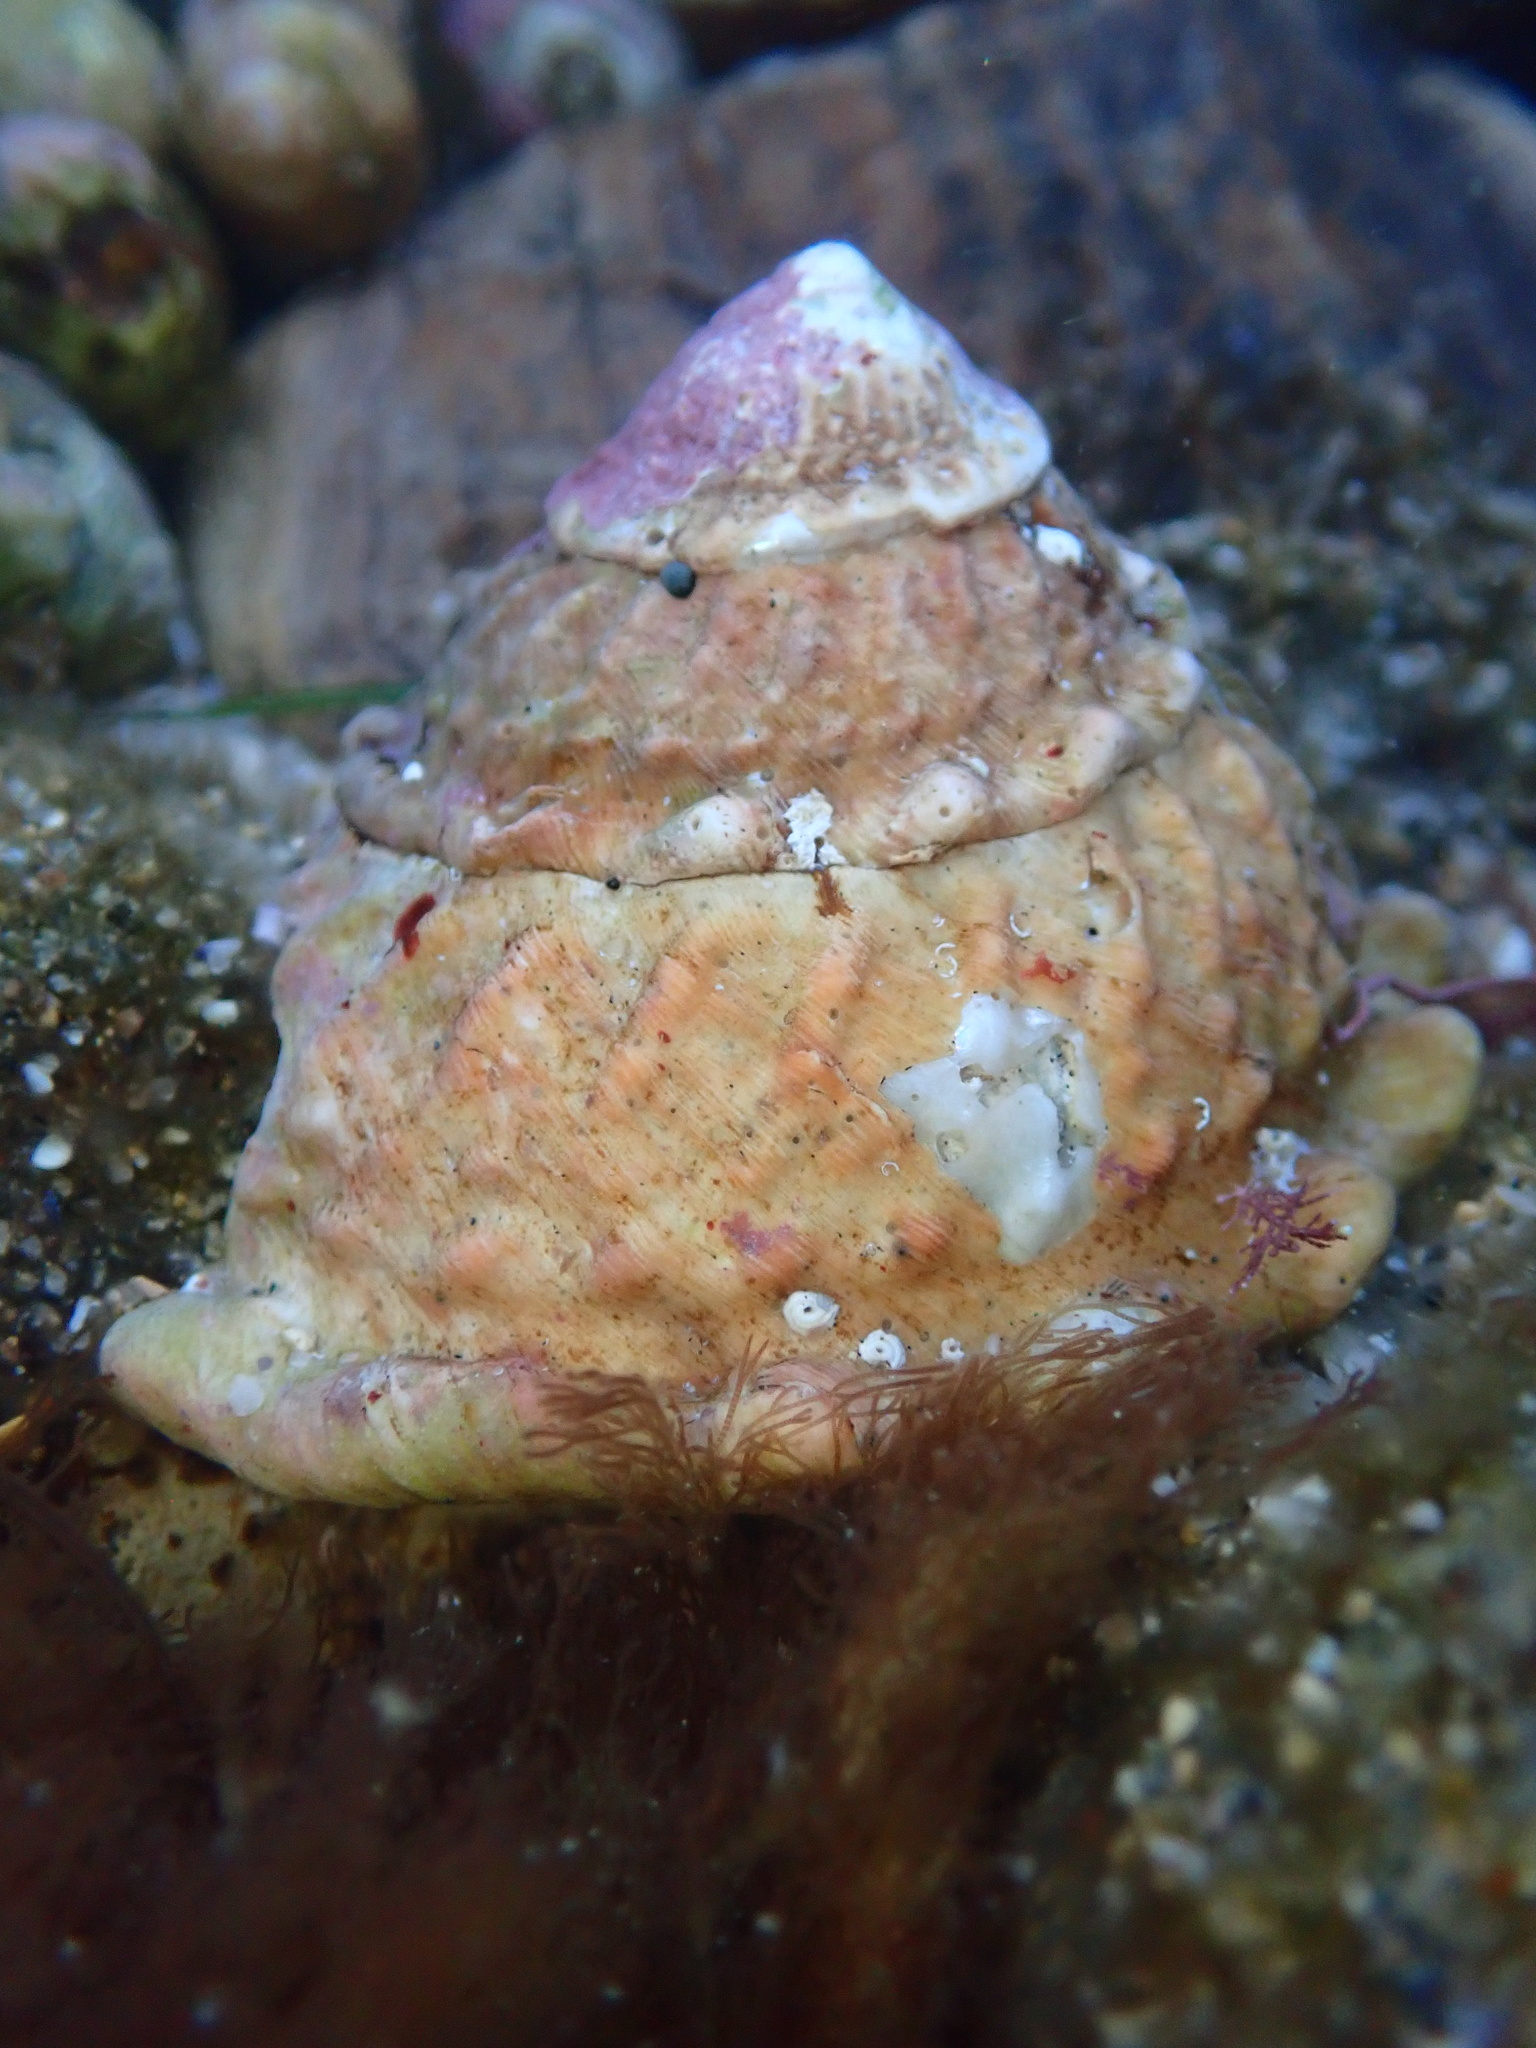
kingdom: Animalia
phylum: Mollusca
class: Gastropoda
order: Trochida
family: Turbinidae
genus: Megastraea
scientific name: Megastraea undosa
